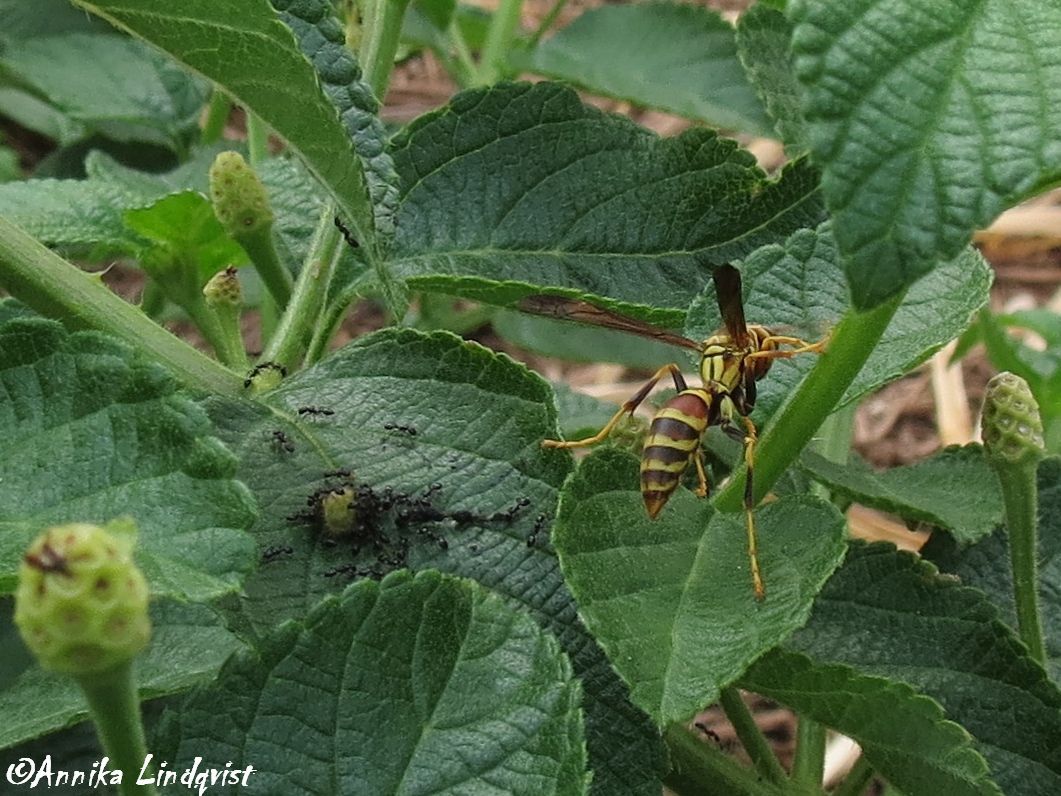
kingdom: Animalia
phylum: Arthropoda
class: Insecta
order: Hymenoptera
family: Eumenidae
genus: Polistes
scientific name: Polistes exclamans
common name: Paper wasp
